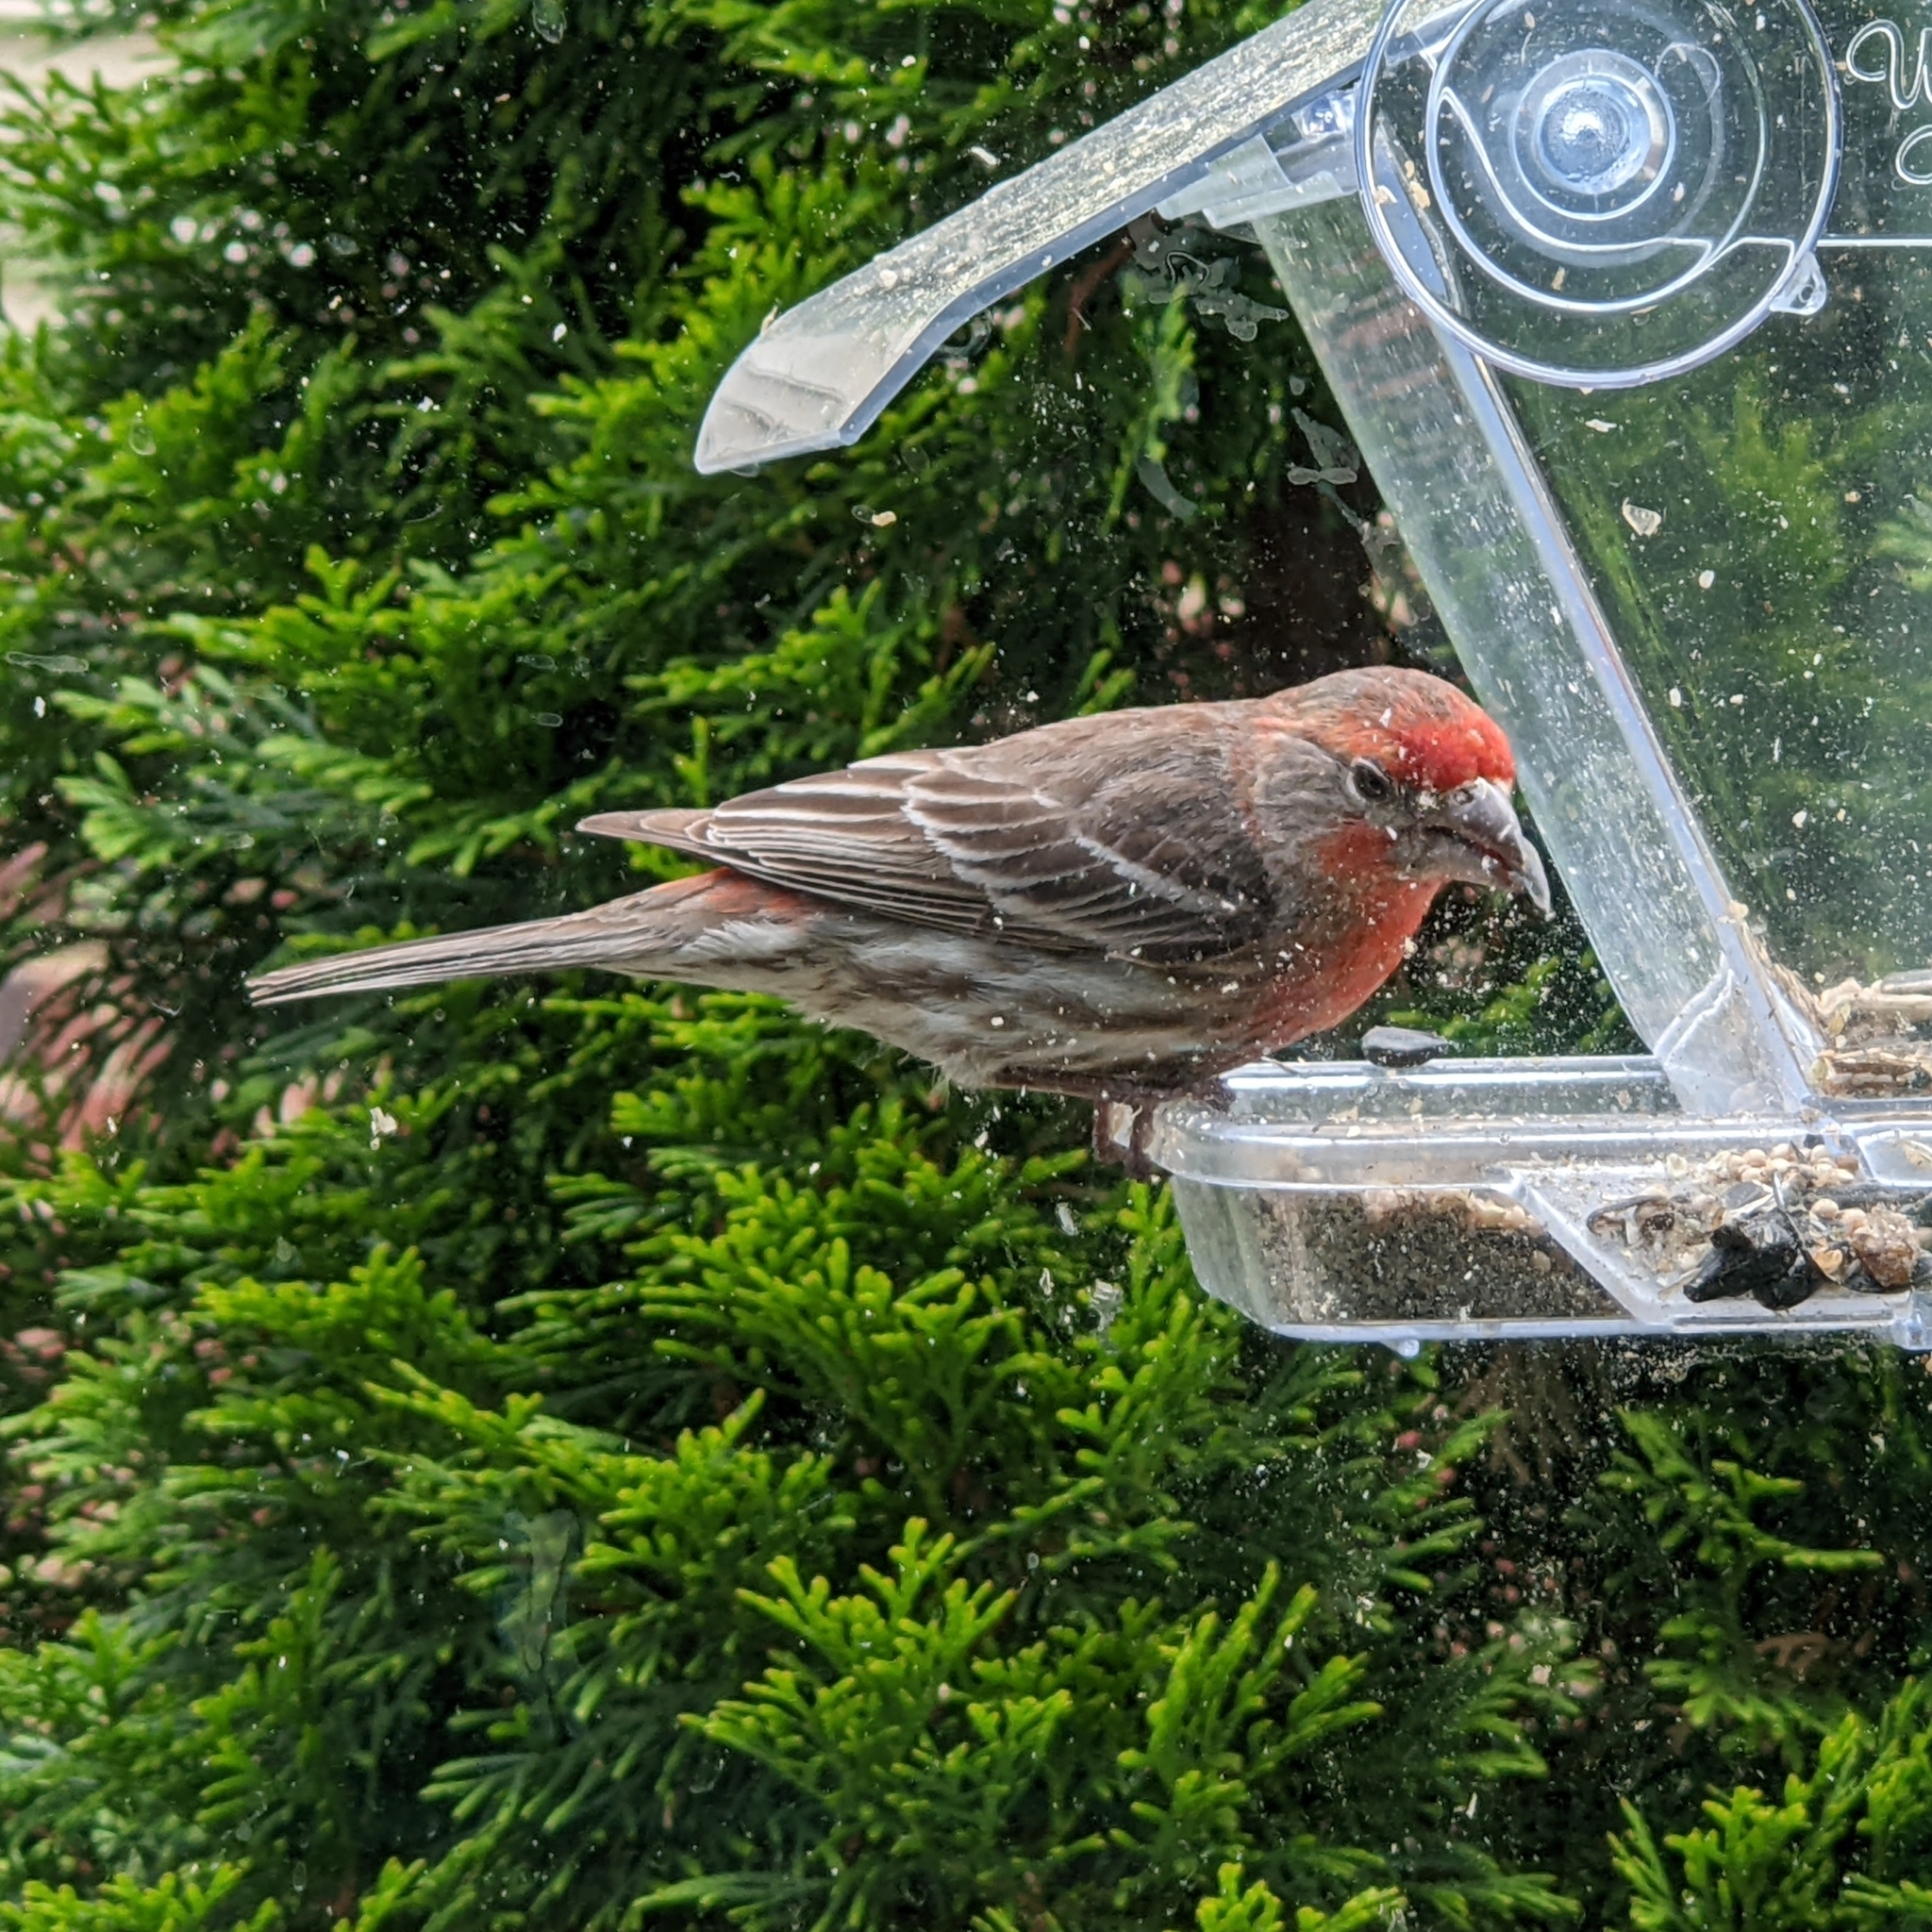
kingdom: Animalia
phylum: Chordata
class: Aves
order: Passeriformes
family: Fringillidae
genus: Haemorhous
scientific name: Haemorhous mexicanus
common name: House finch
